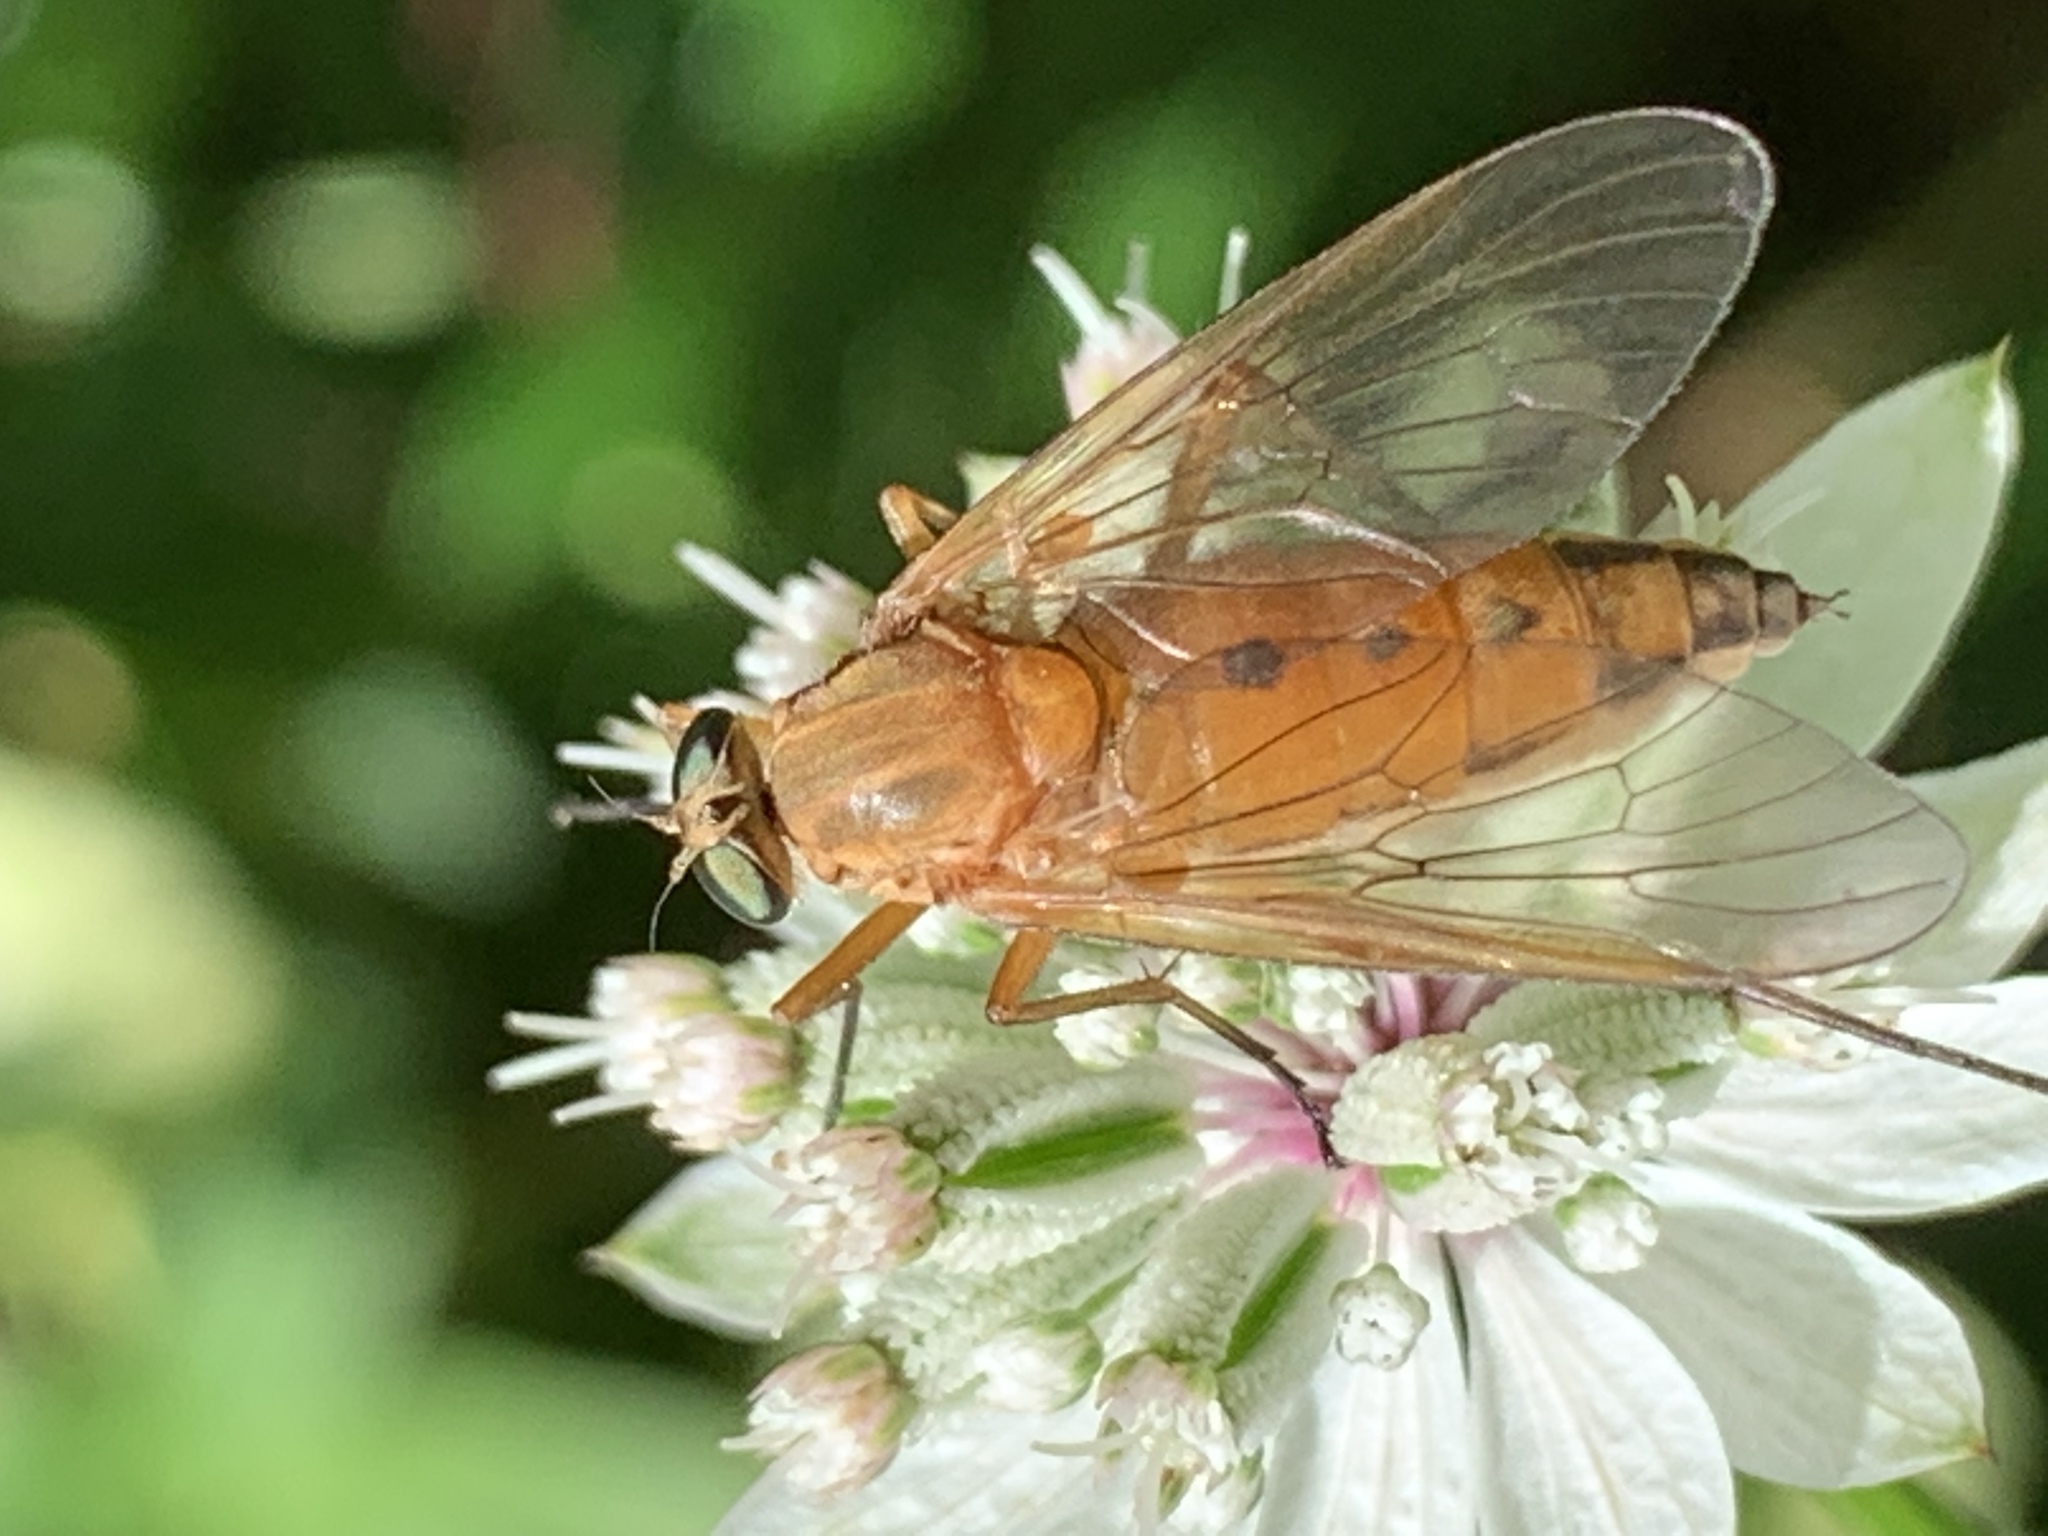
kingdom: Animalia
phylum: Arthropoda
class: Insecta
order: Diptera
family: Rhagionidae
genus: Rhagio
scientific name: Rhagio tringaria
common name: Marsh snipefly
